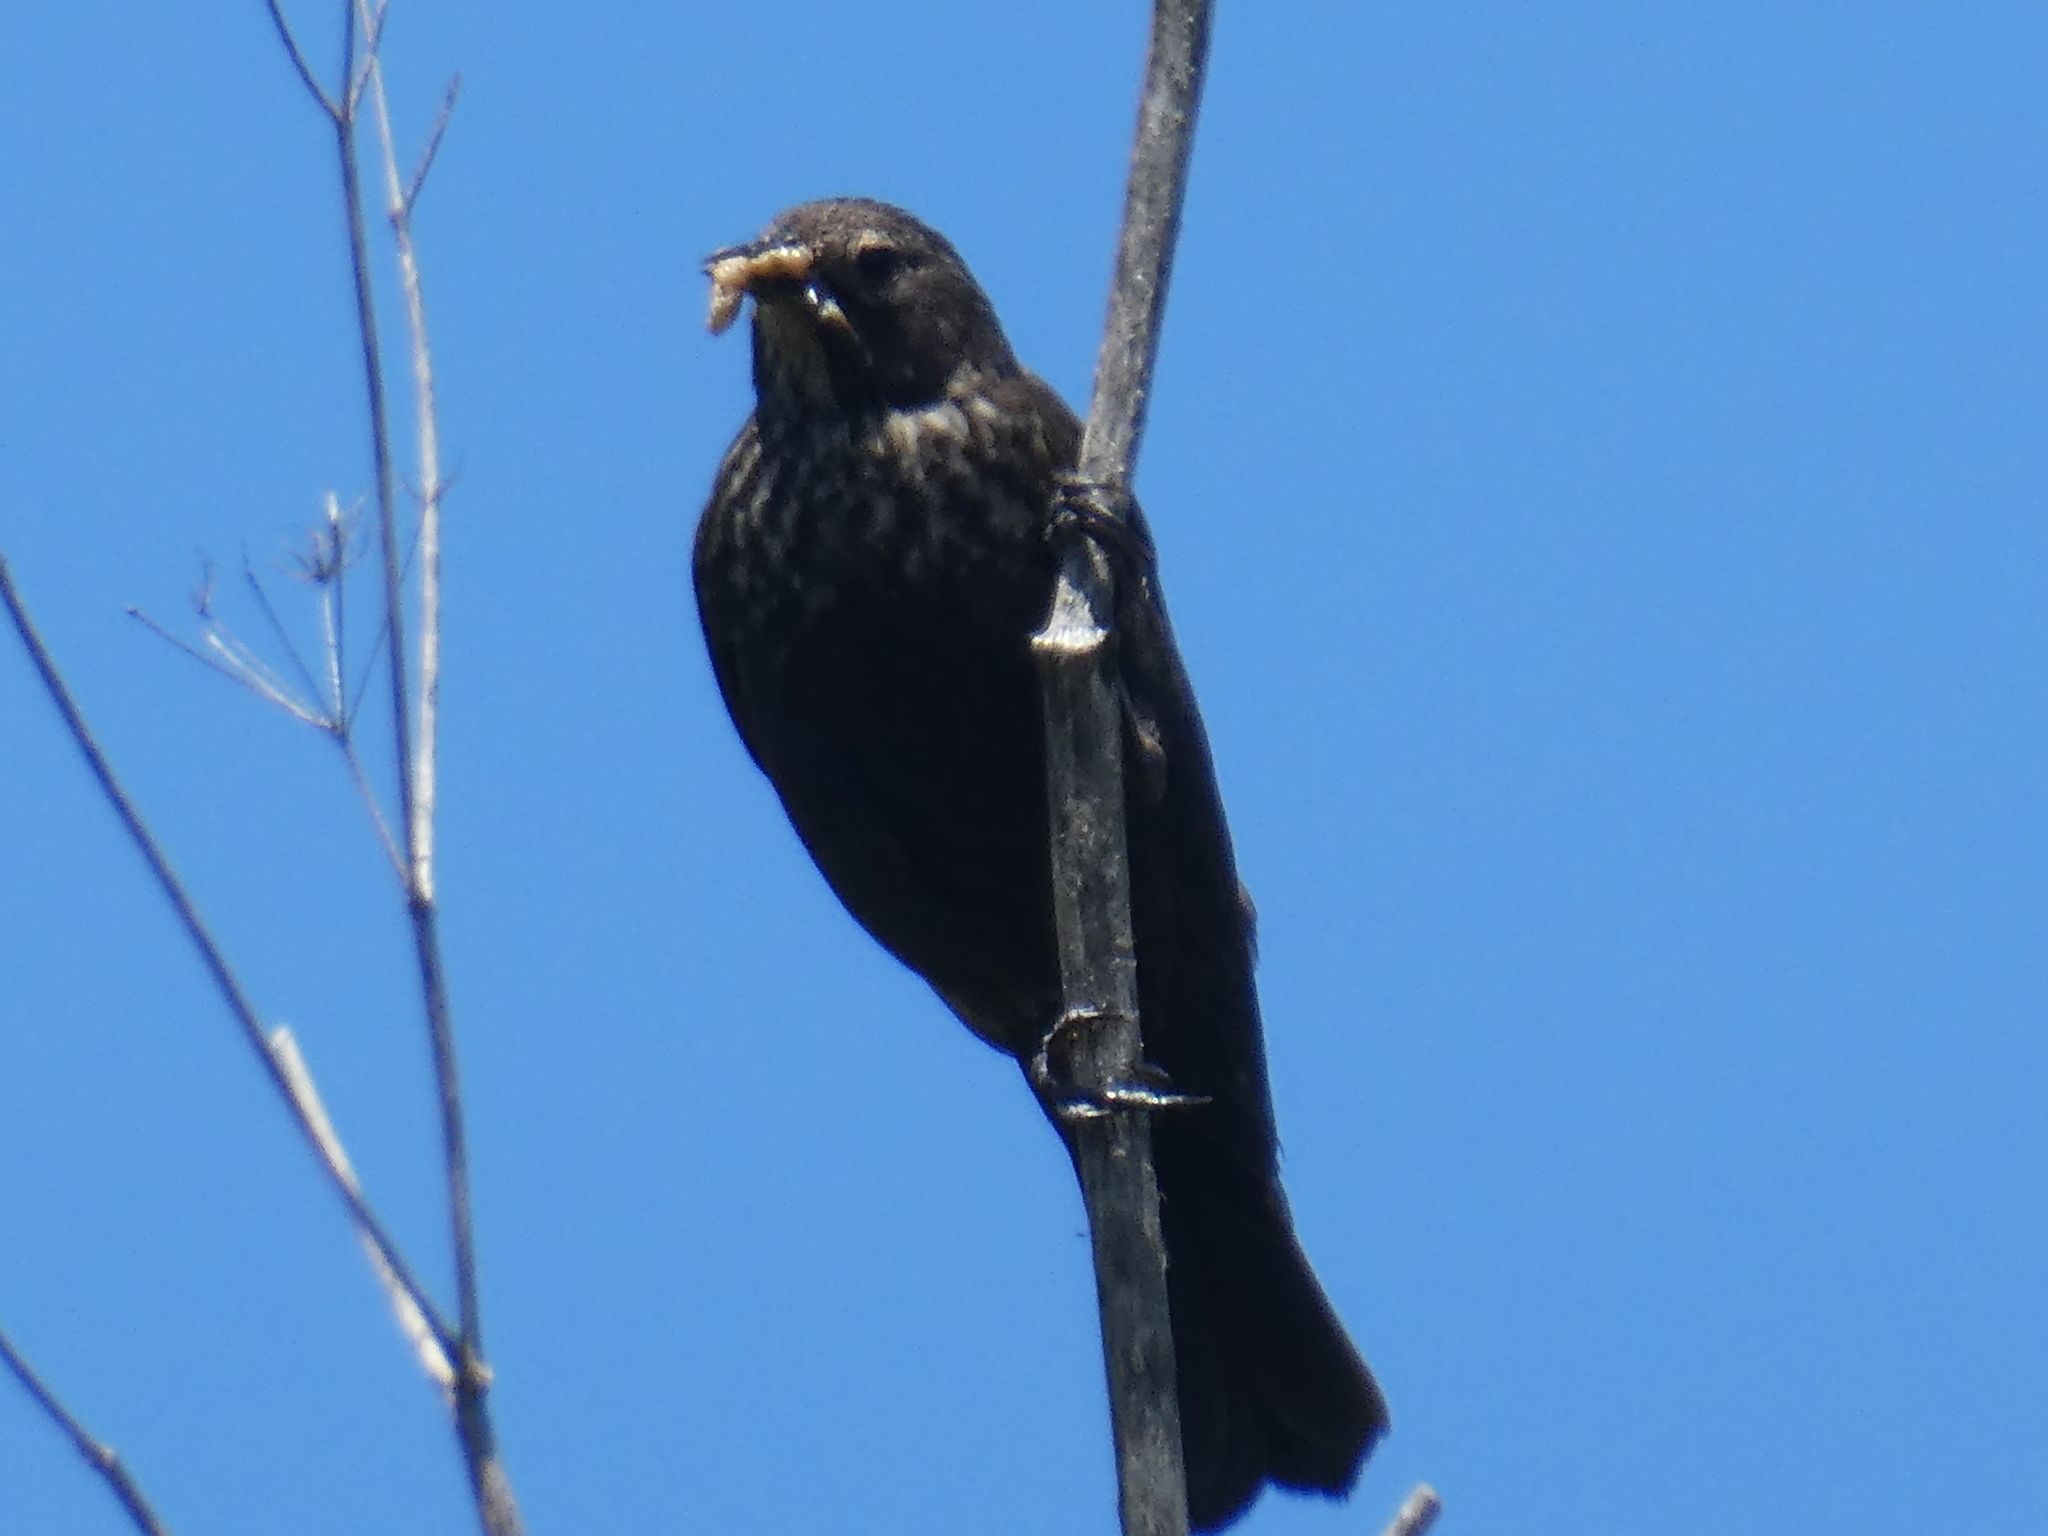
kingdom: Animalia
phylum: Chordata
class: Aves
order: Passeriformes
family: Icteridae
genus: Agelaius
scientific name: Agelaius phoeniceus
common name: Red-winged blackbird
